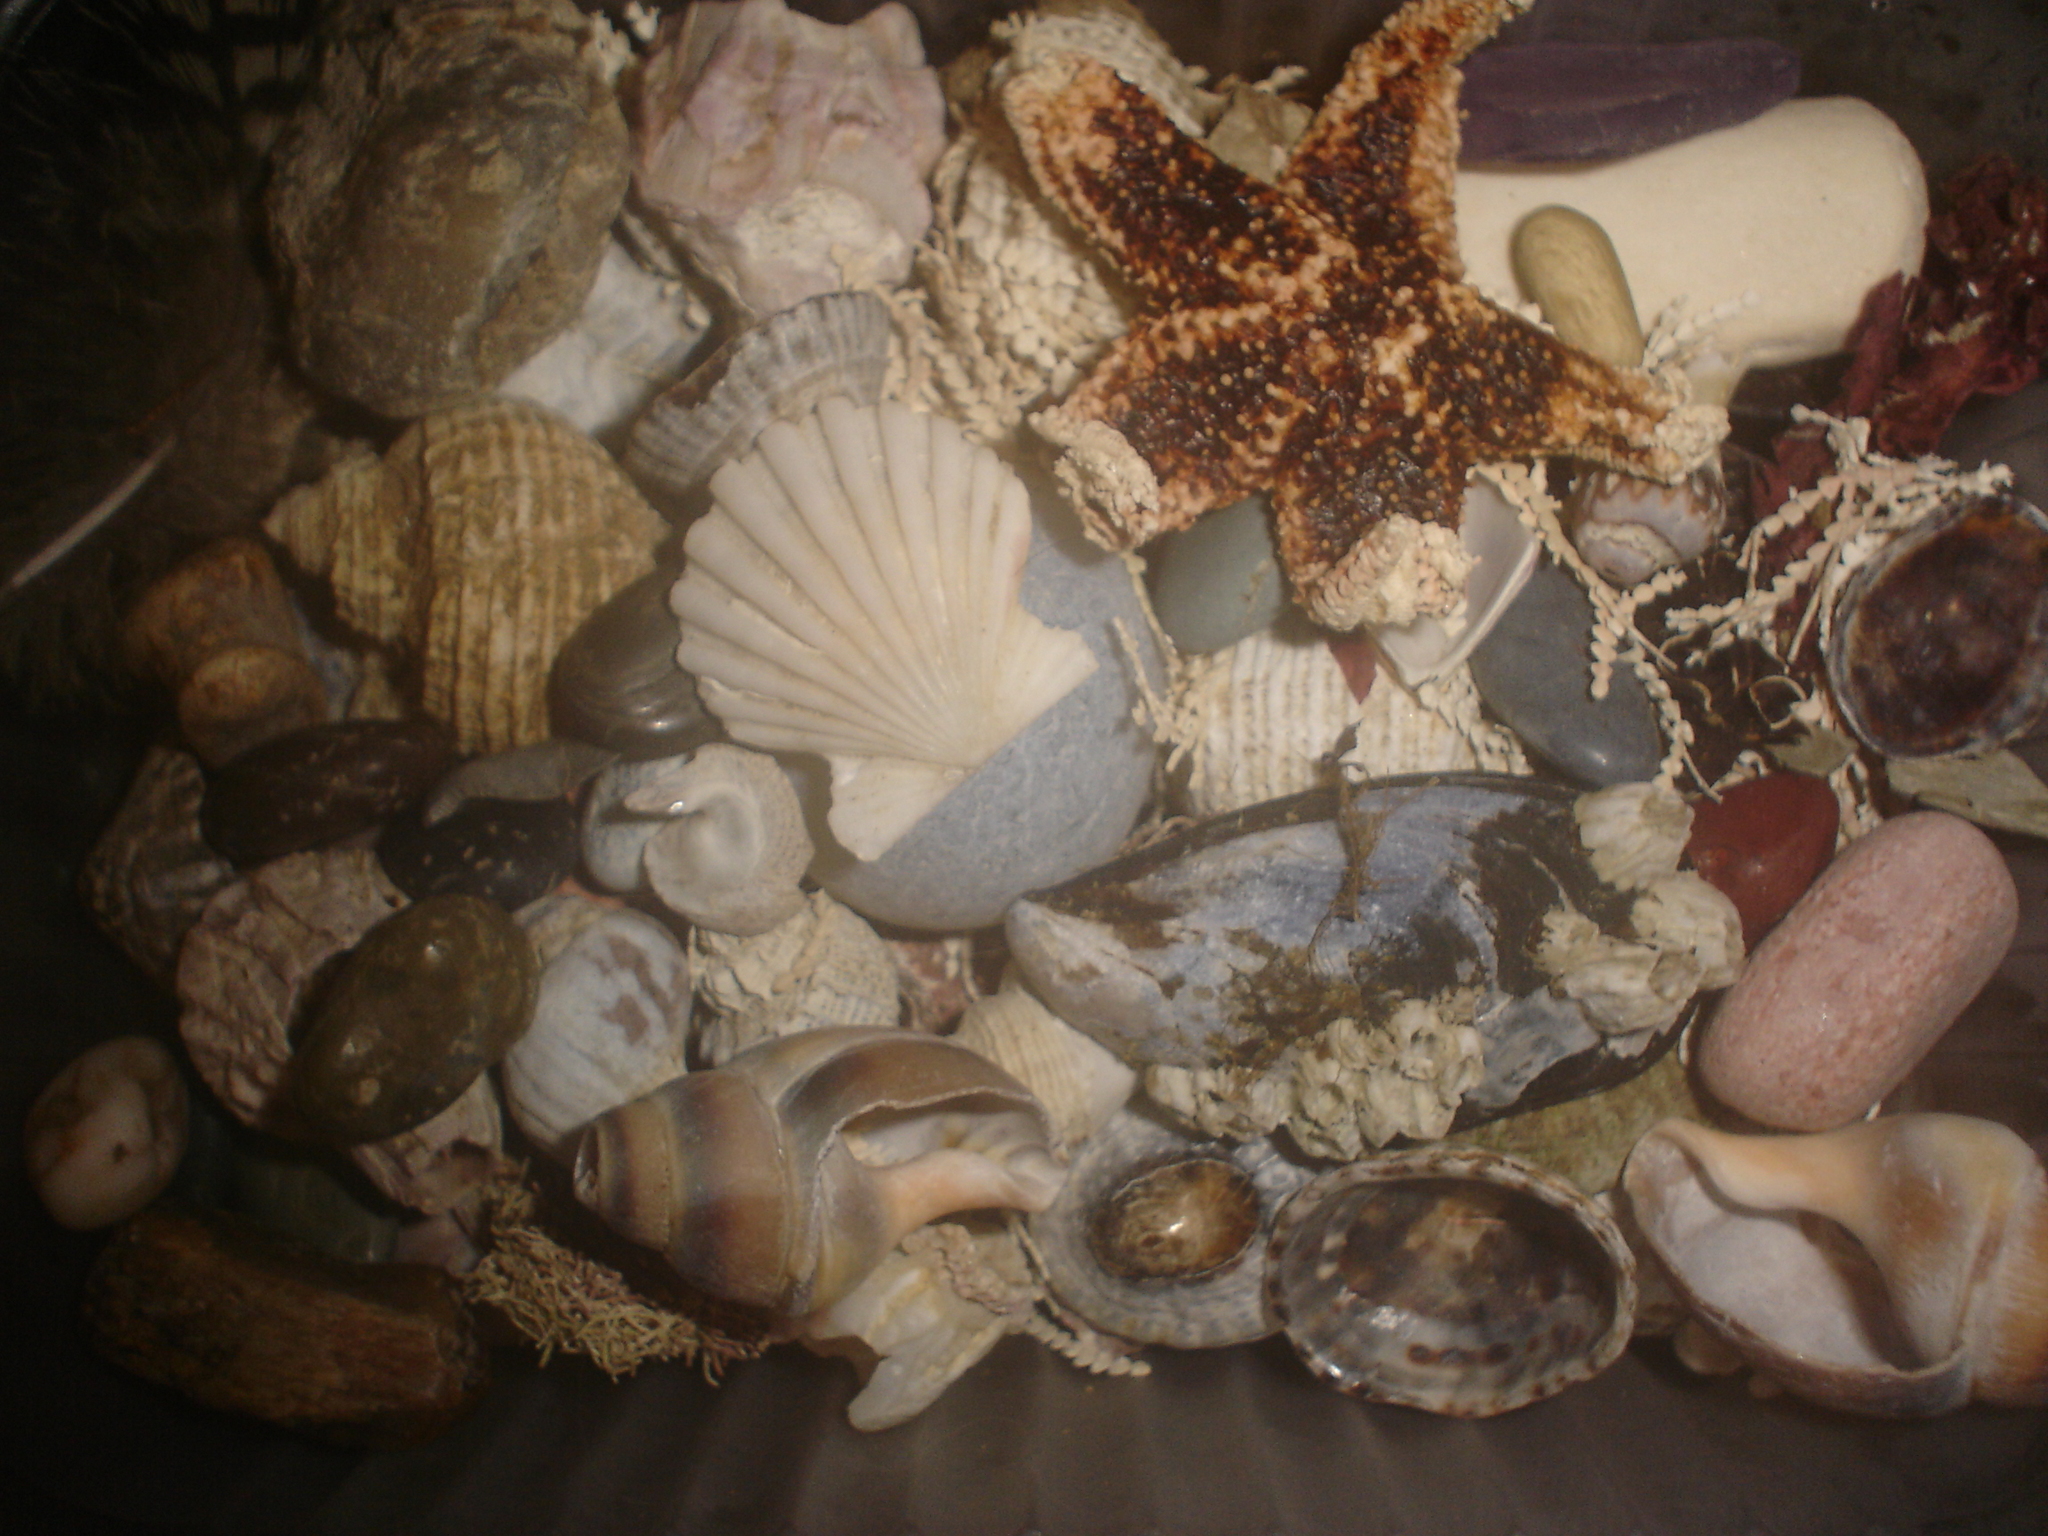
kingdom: Animalia
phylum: Mollusca
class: Bivalvia
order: Pectinida
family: Pectinidae
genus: Aequipecten
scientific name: Aequipecten tehuelchus
